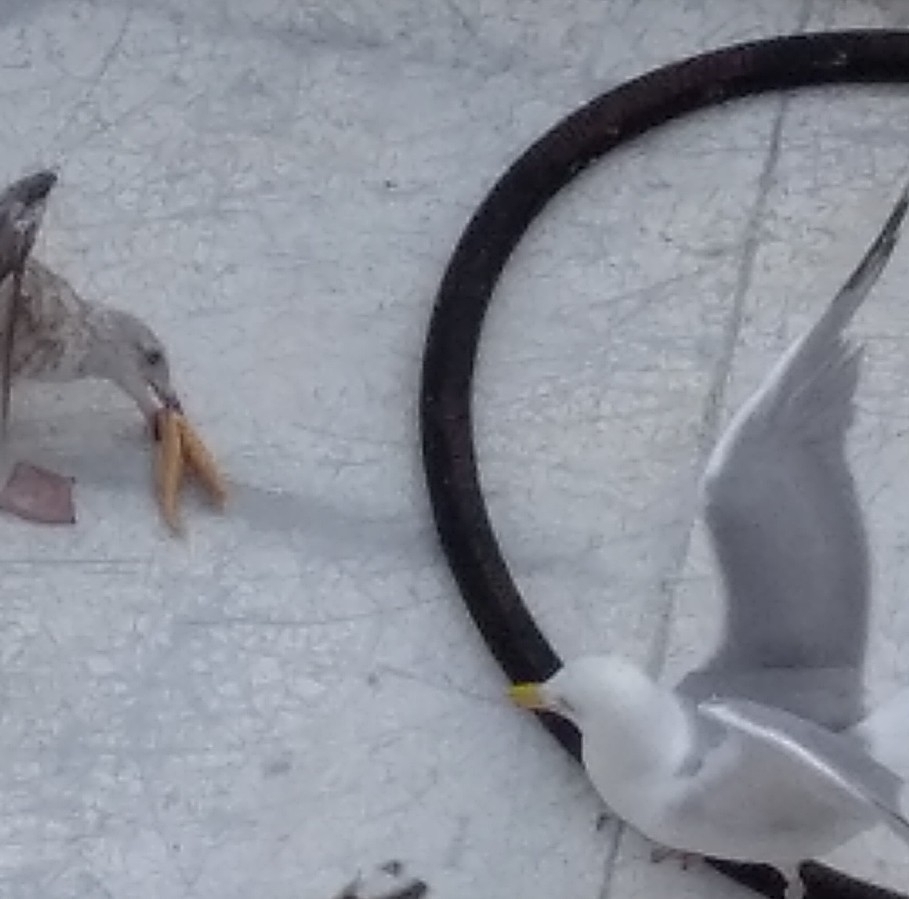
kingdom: Animalia
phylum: Echinodermata
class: Asteroidea
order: Forcipulatida
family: Asteriidae
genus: Asterias
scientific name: Asterias rubens
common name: Common starfish
